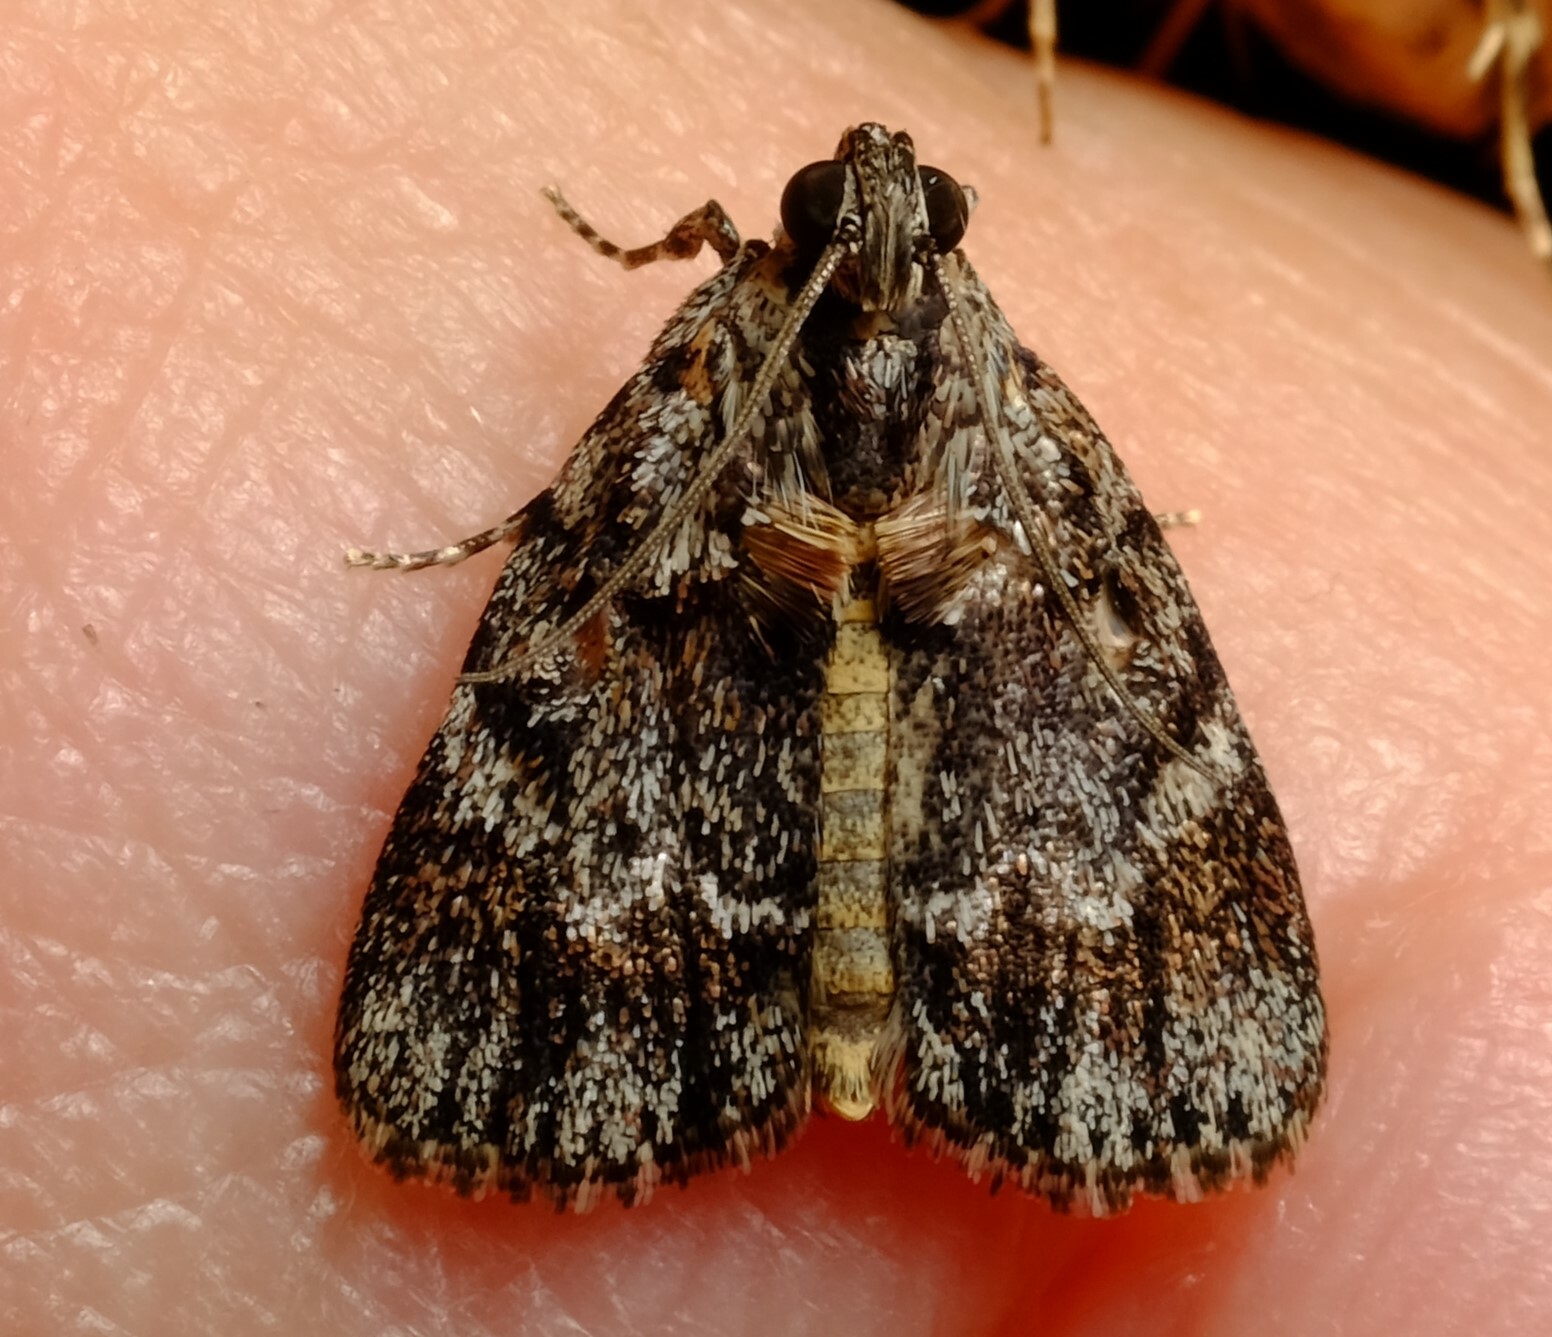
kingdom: Animalia
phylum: Arthropoda
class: Insecta
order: Lepidoptera
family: Pyralidae
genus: Spectrotrota
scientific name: Spectrotrota fimbrialis
